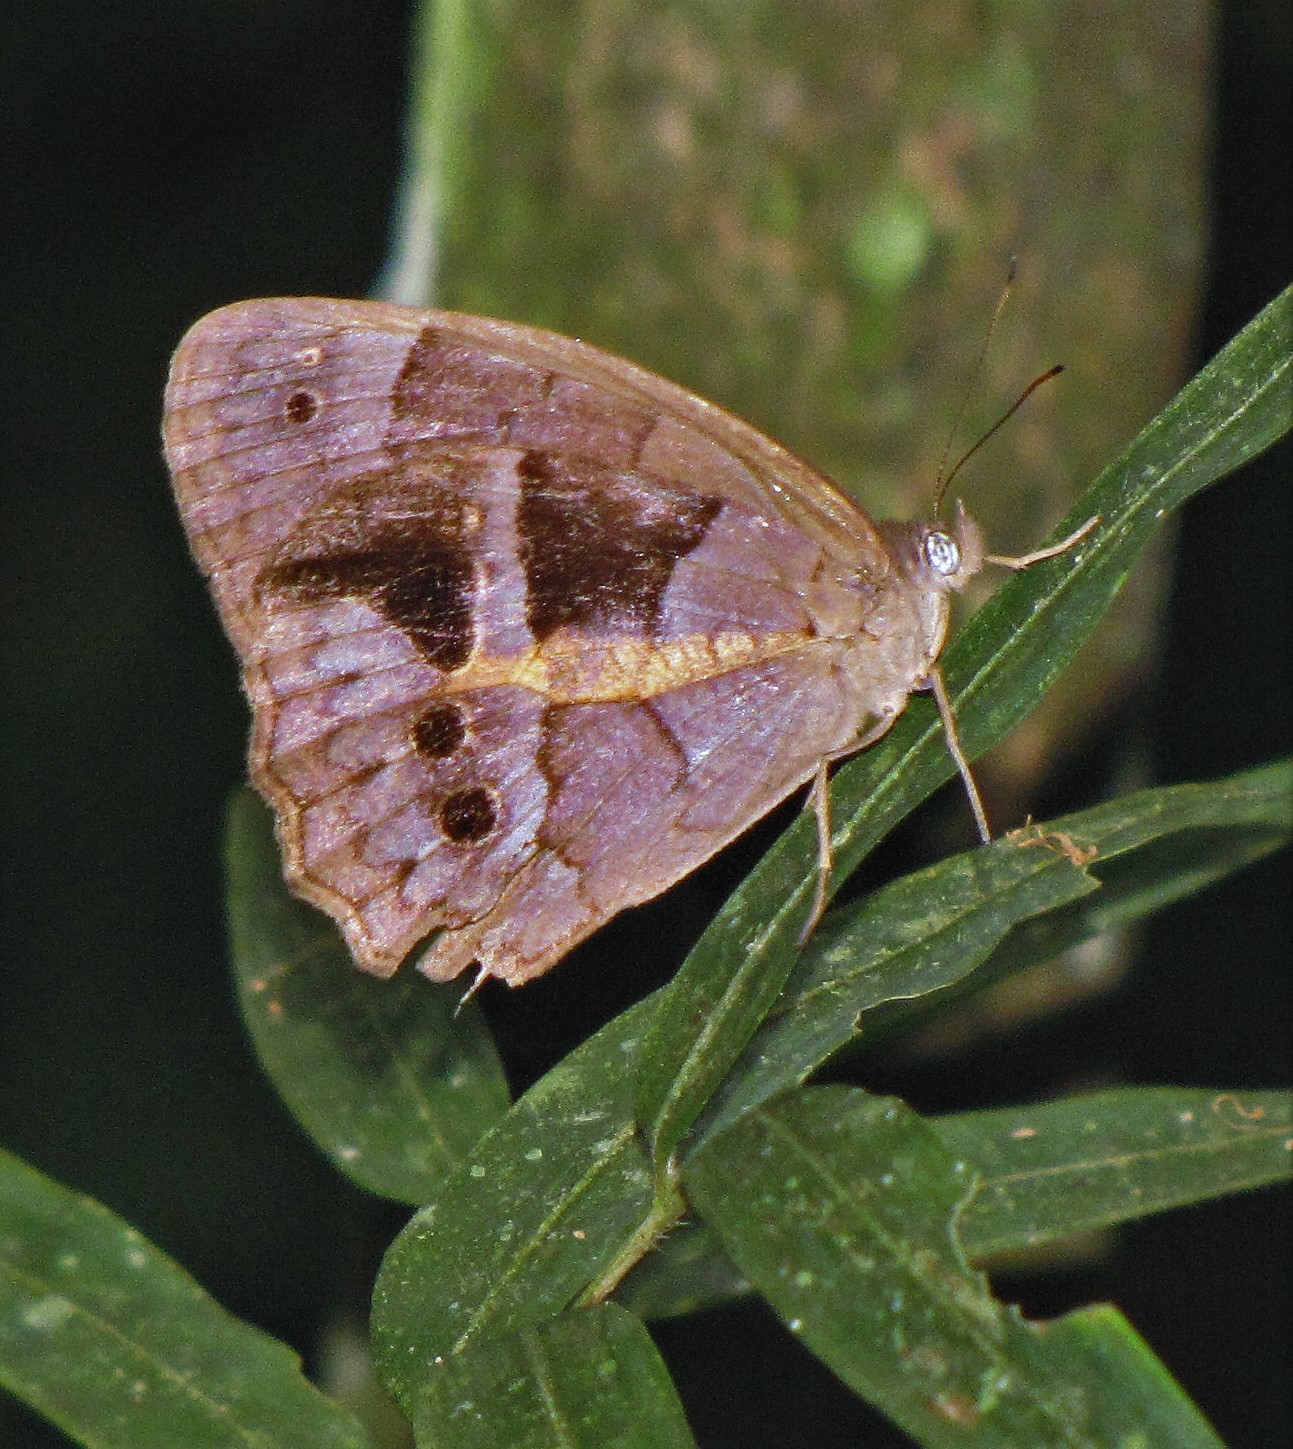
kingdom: Animalia
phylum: Arthropoda
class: Insecta
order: Lepidoptera
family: Nymphalidae
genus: Posttaygetis
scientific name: Posttaygetis penelea
